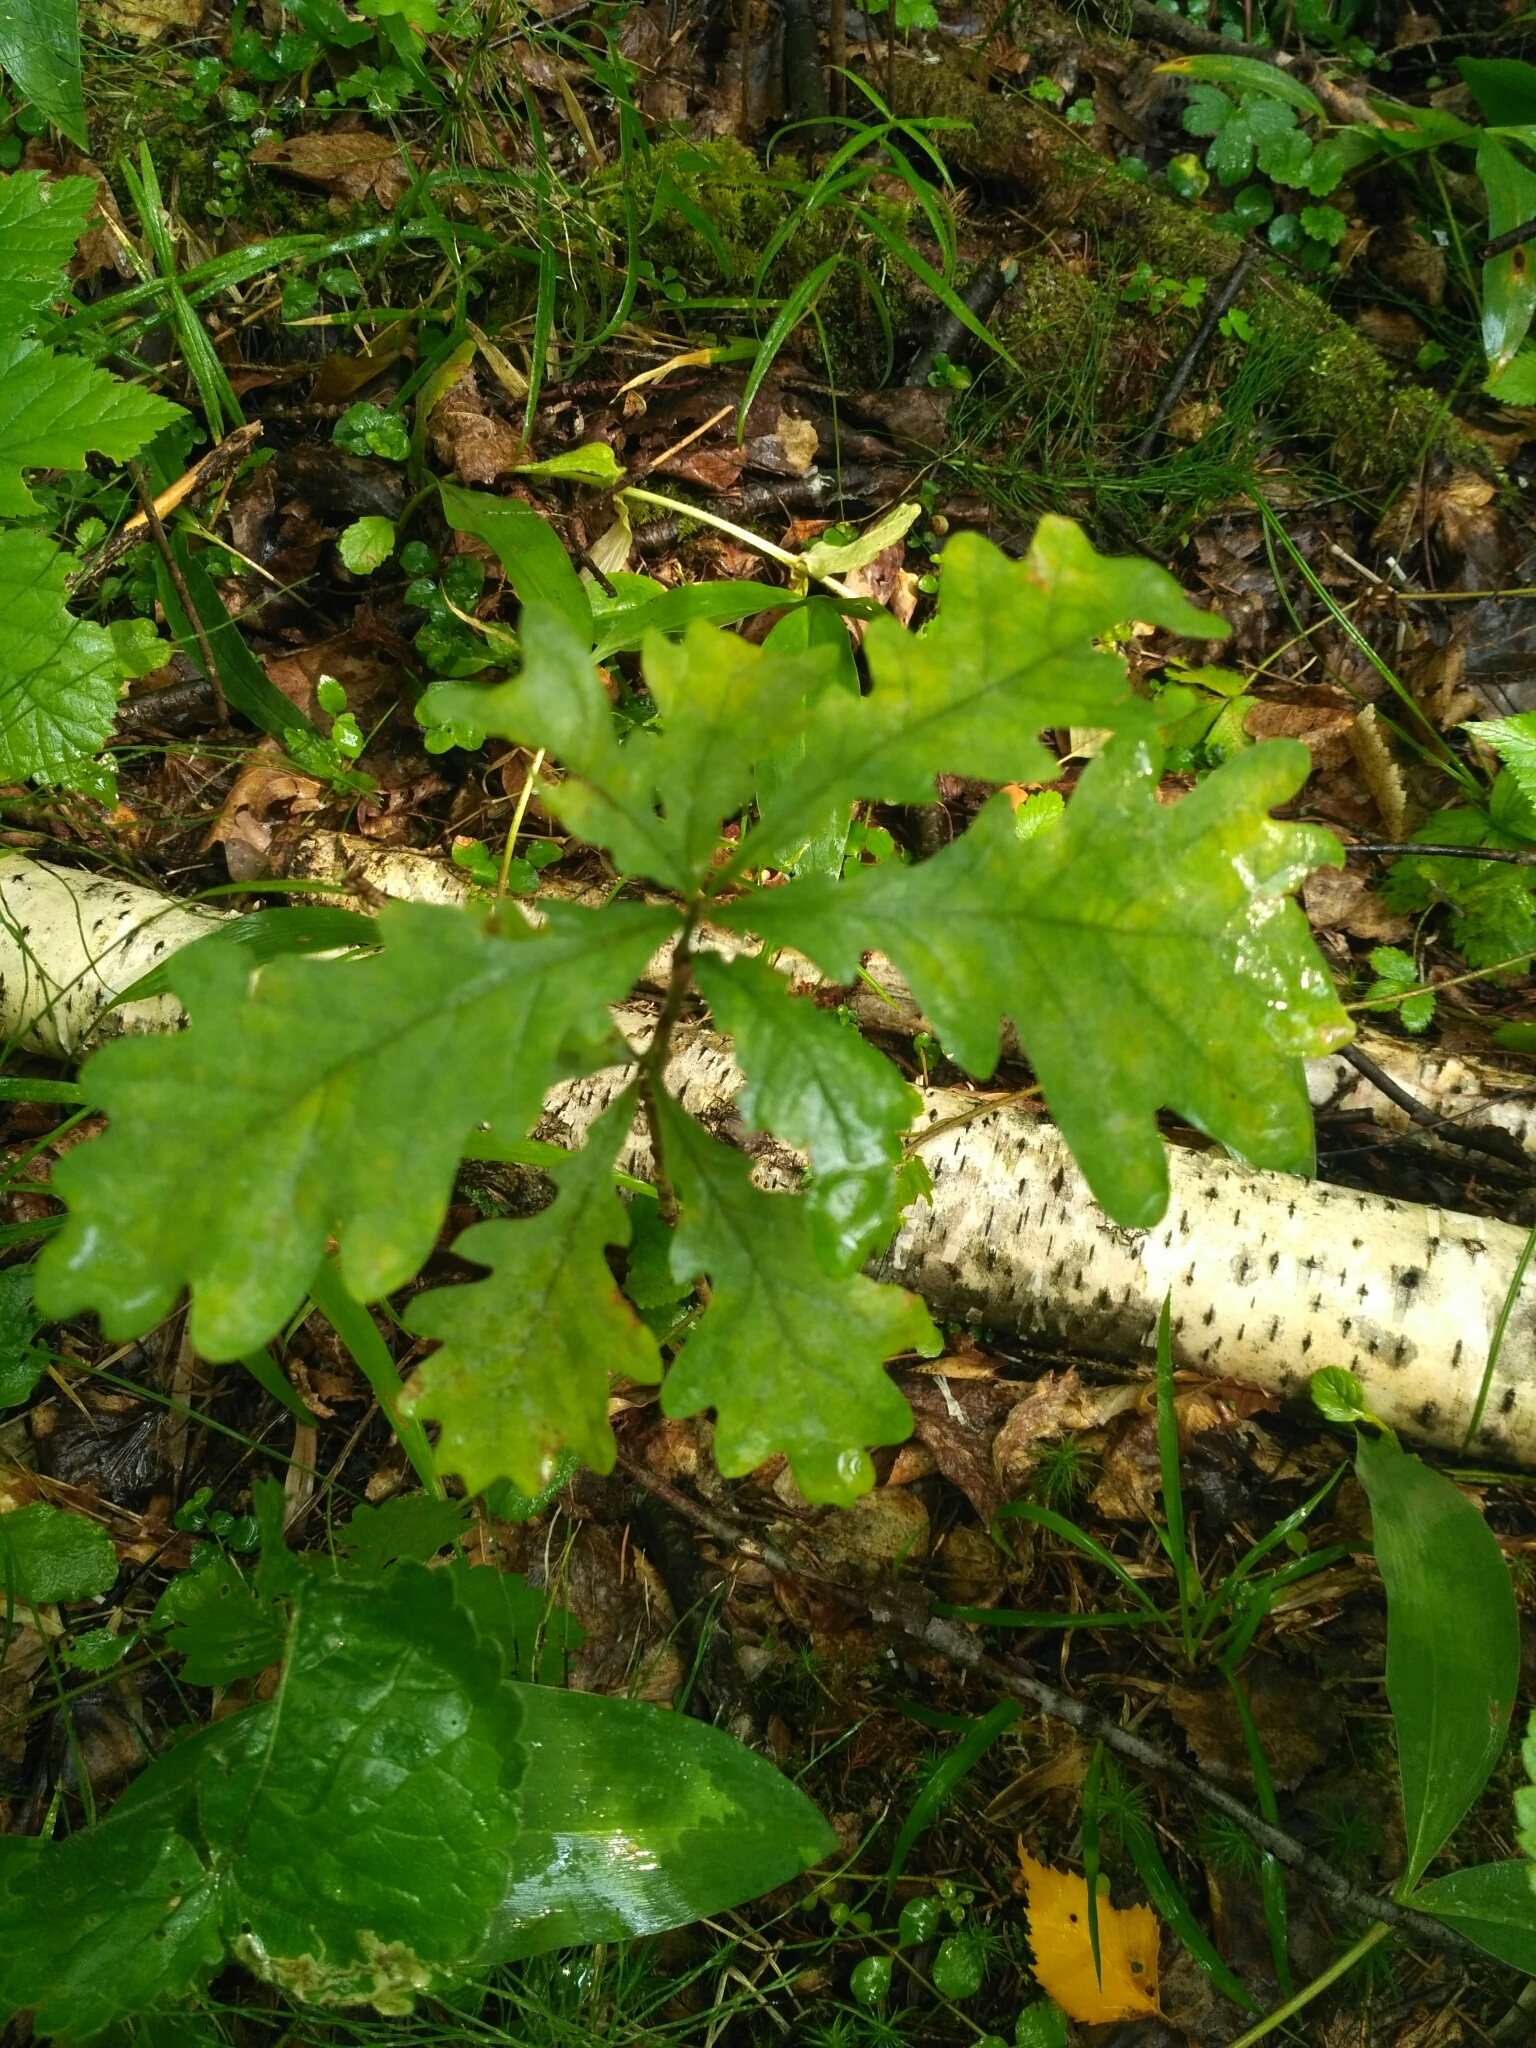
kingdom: Plantae
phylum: Tracheophyta
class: Magnoliopsida
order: Fagales
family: Fagaceae
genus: Quercus
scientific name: Quercus robur
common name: Pedunculate oak
